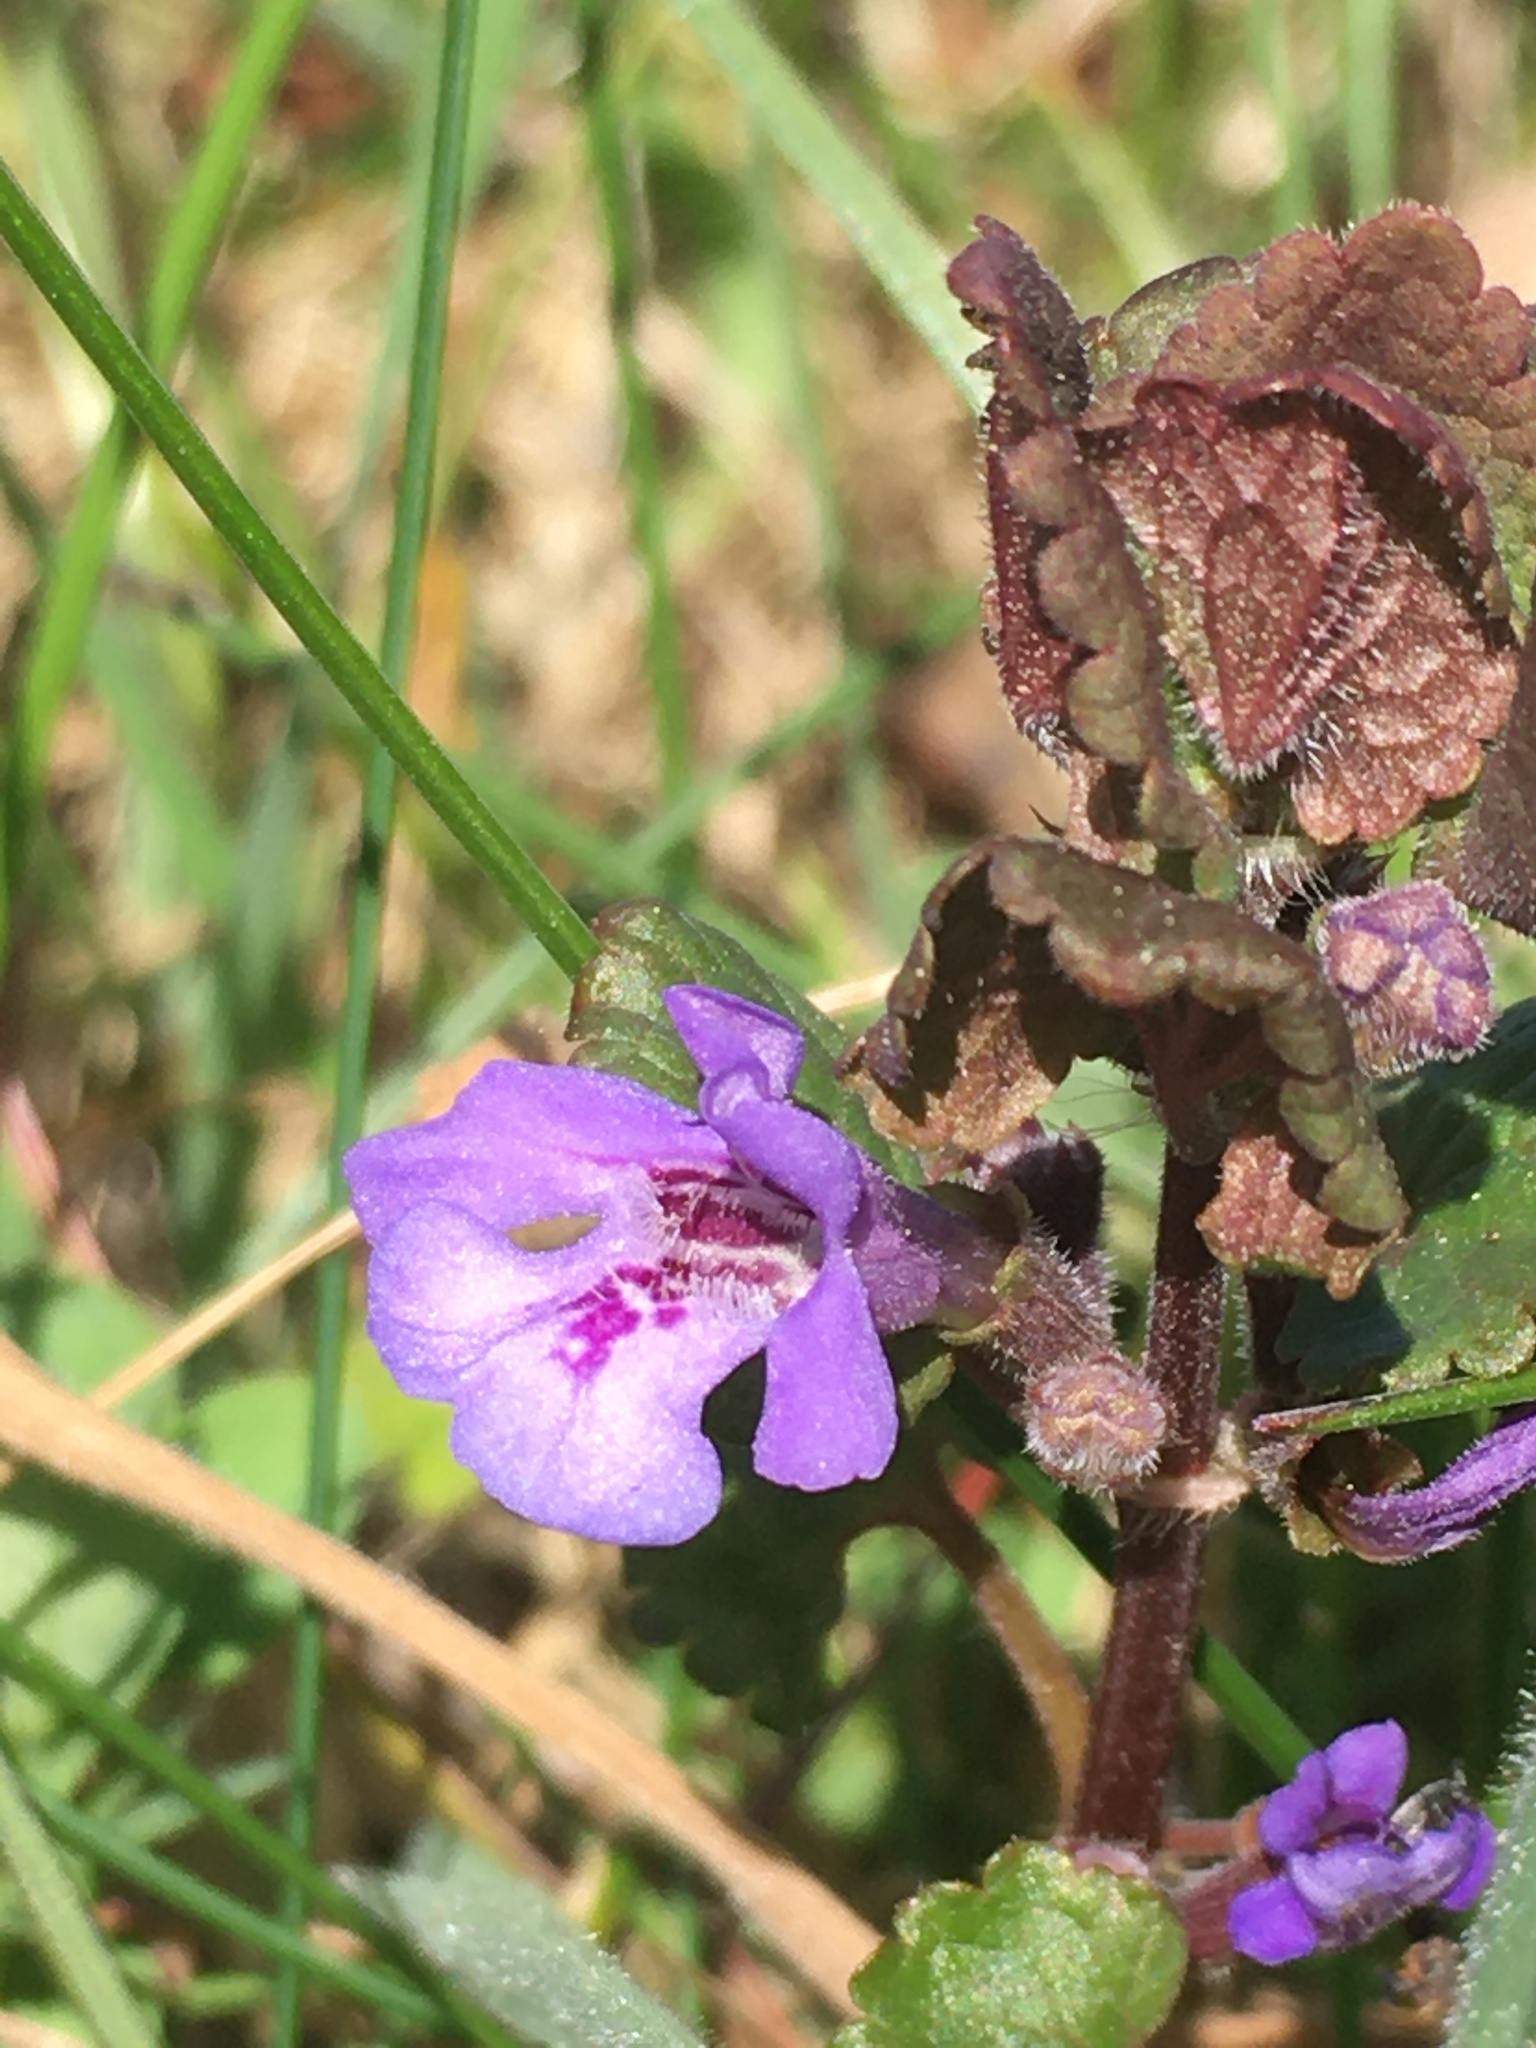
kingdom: Plantae
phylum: Tracheophyta
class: Magnoliopsida
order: Lamiales
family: Lamiaceae
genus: Glechoma
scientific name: Glechoma hederacea
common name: Ground ivy
